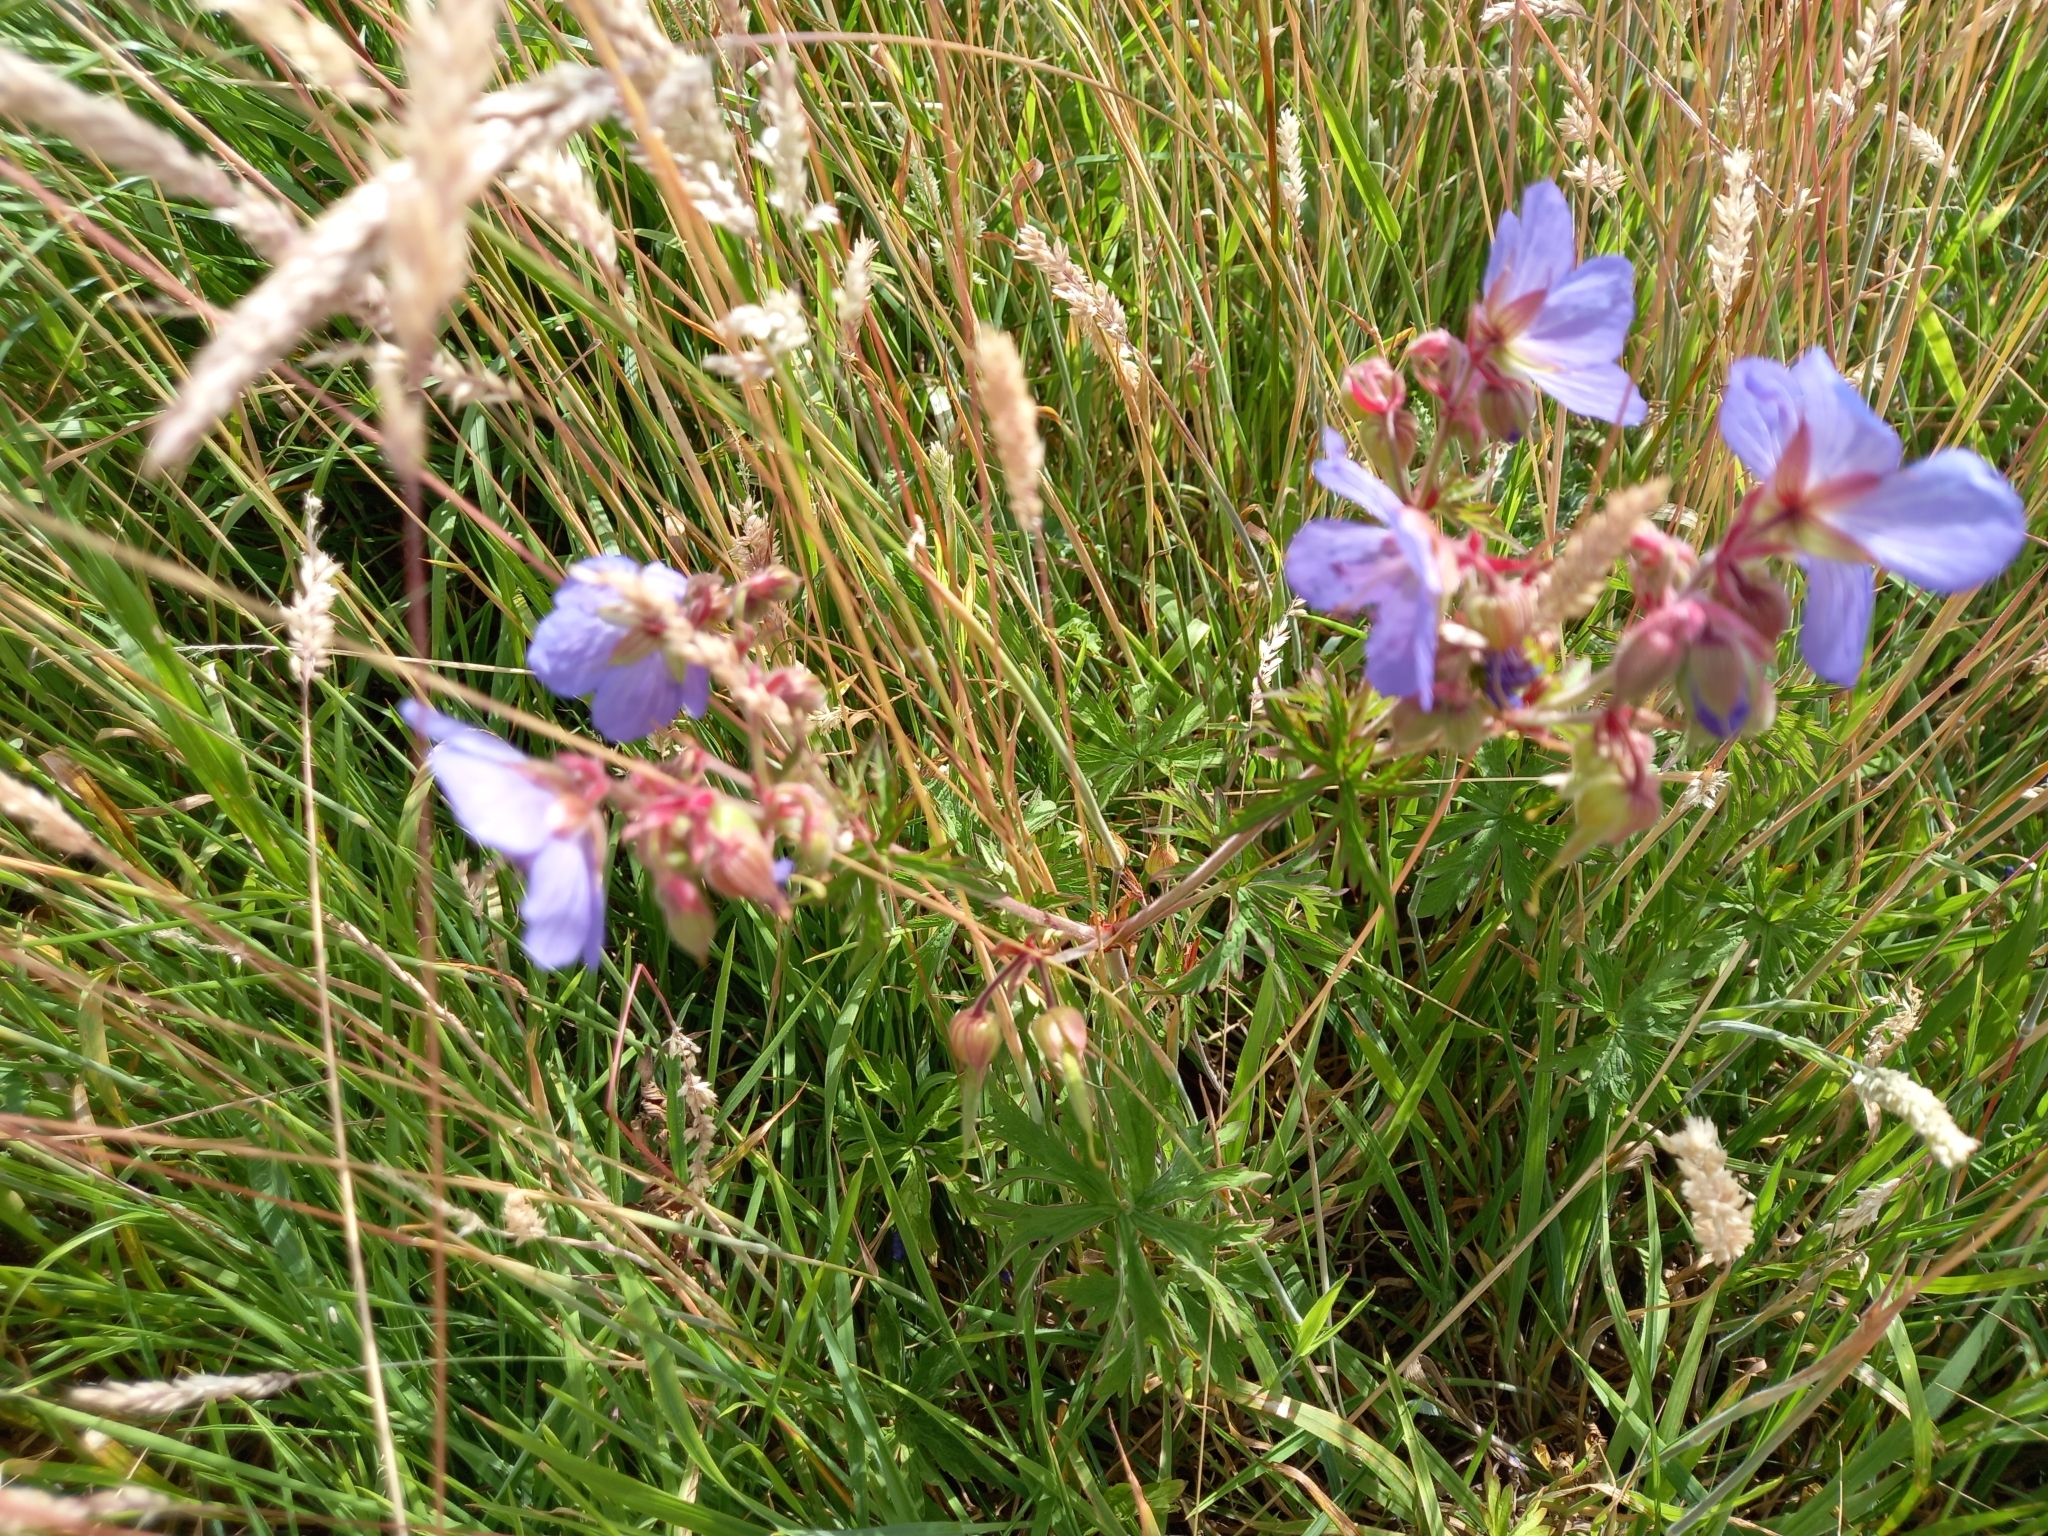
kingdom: Plantae
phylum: Tracheophyta
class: Magnoliopsida
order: Geraniales
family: Geraniaceae
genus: Geranium
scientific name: Geranium pratense
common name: Meadow crane's-bill
